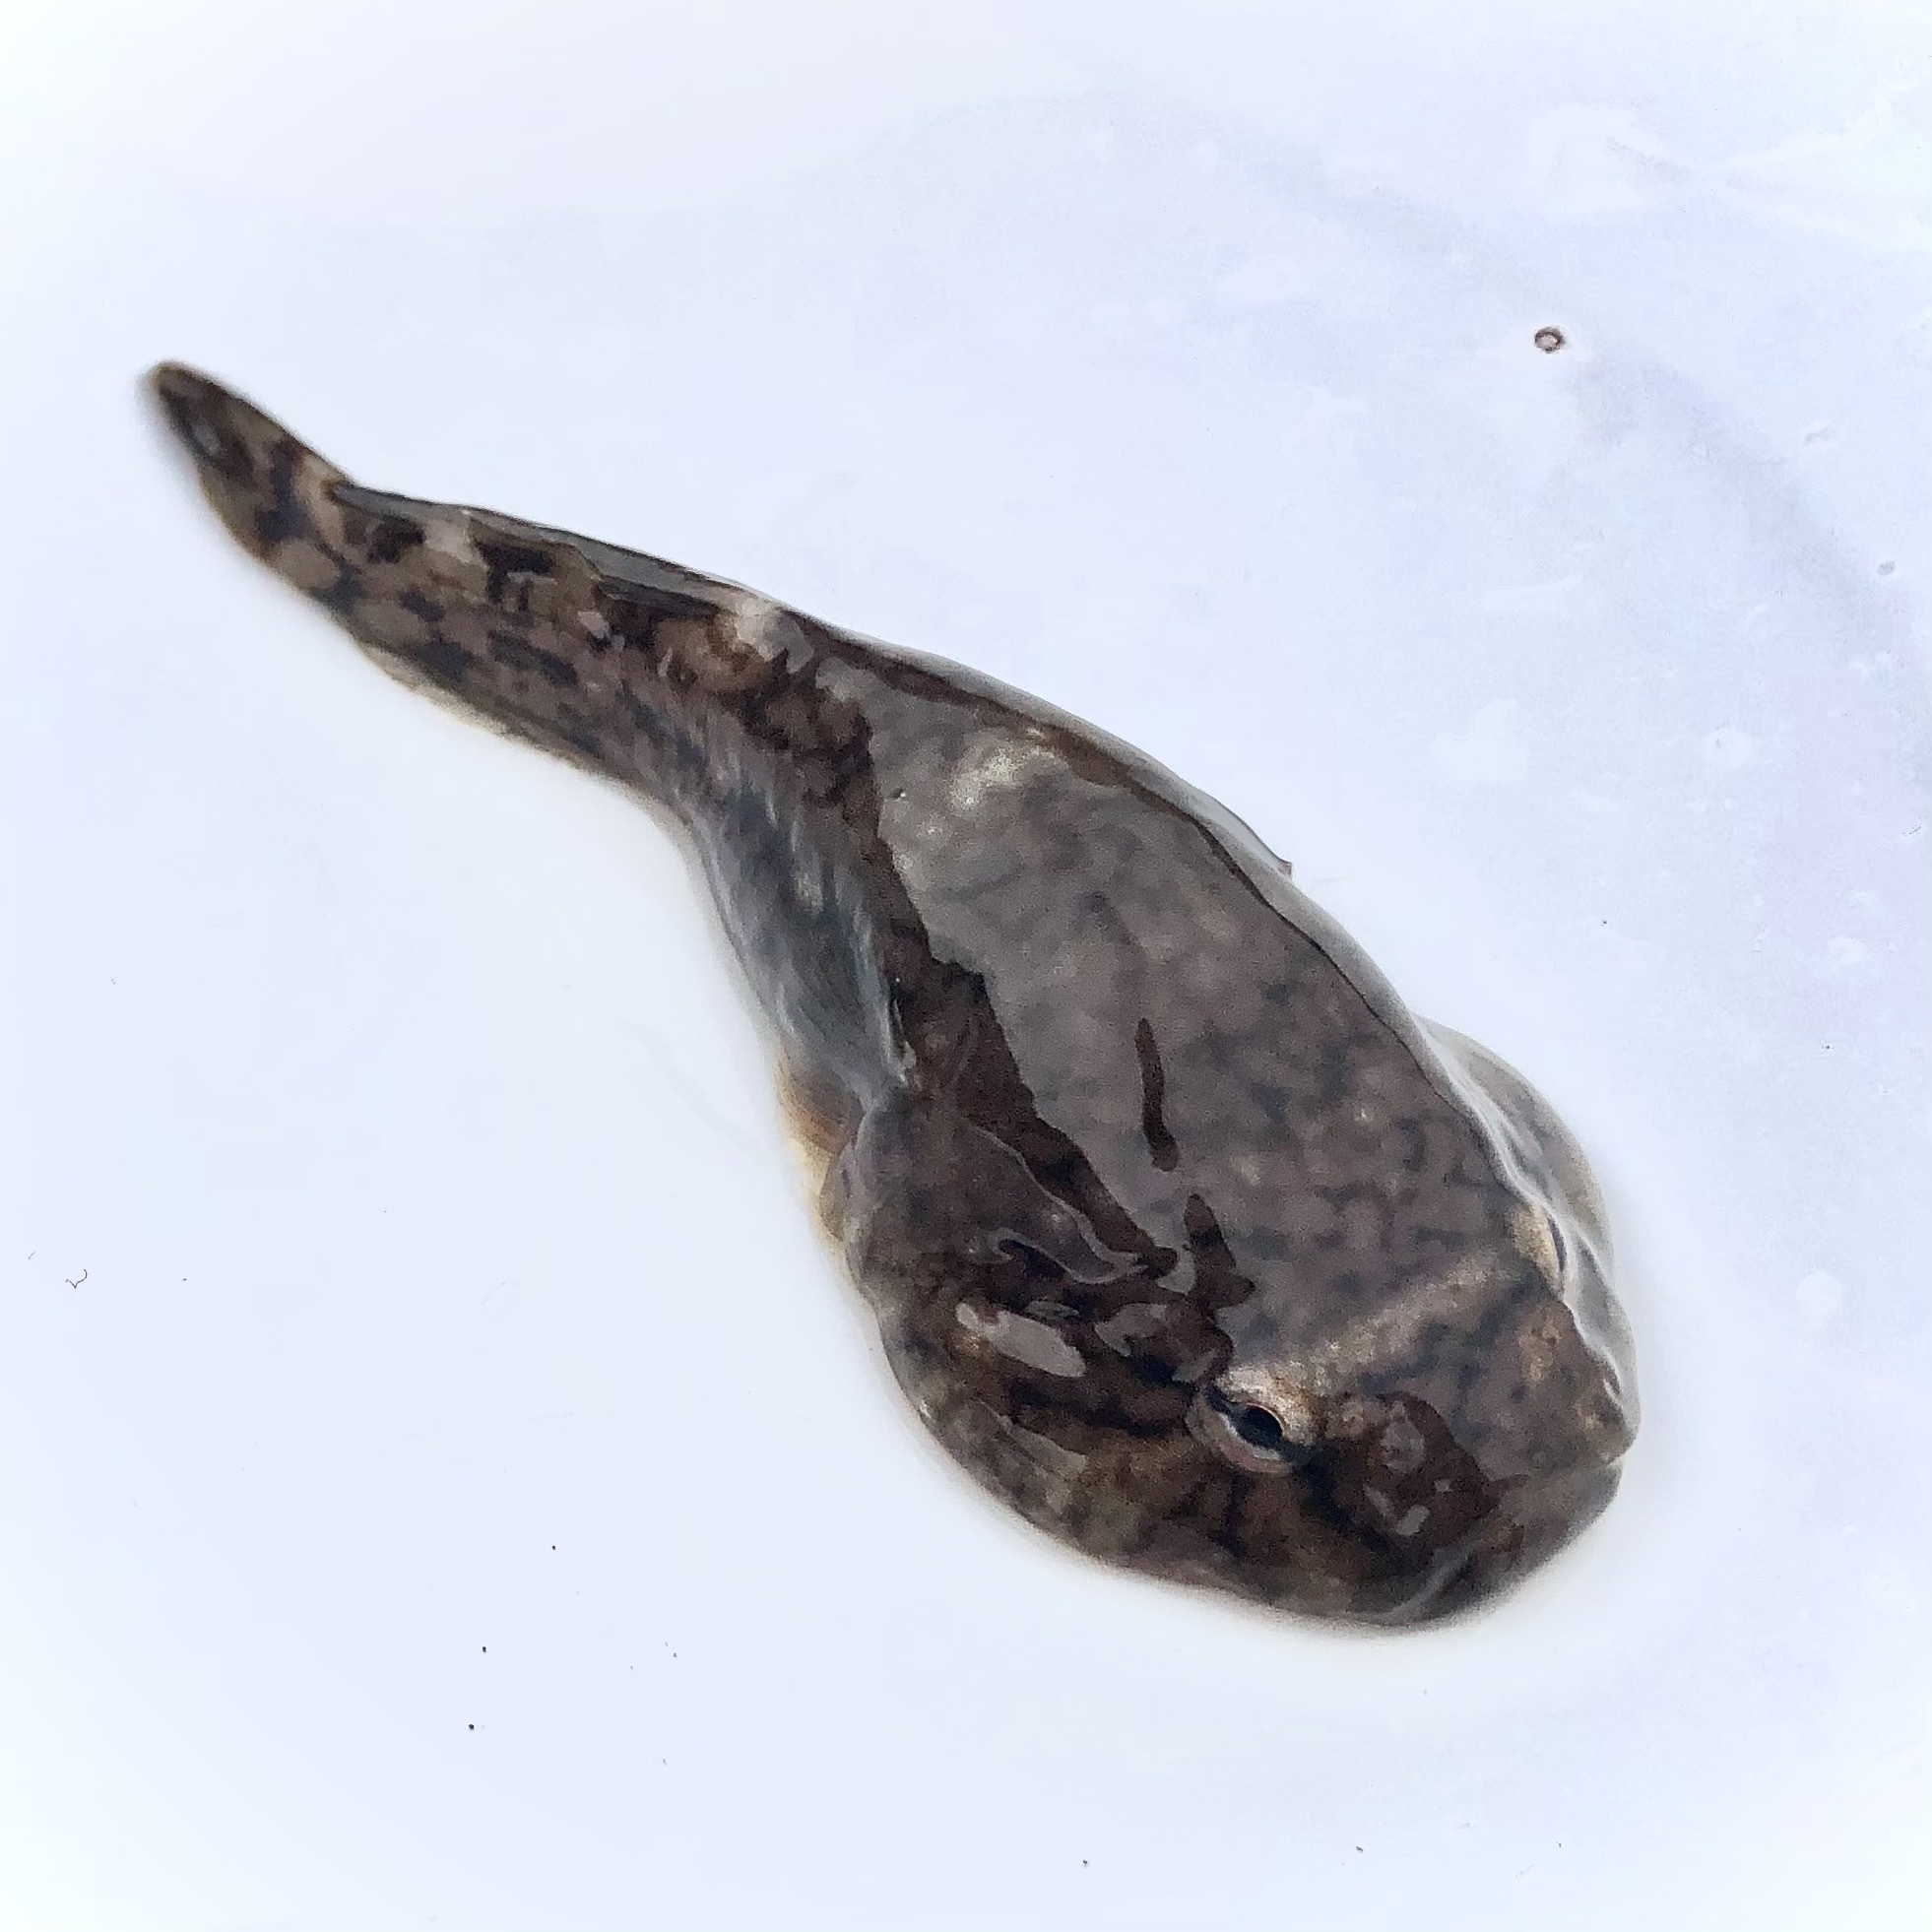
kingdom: Animalia
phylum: Chordata
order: Gobiesociformes
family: Gobiesocidae
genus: Gobiesox
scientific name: Gobiesox maeandricus
